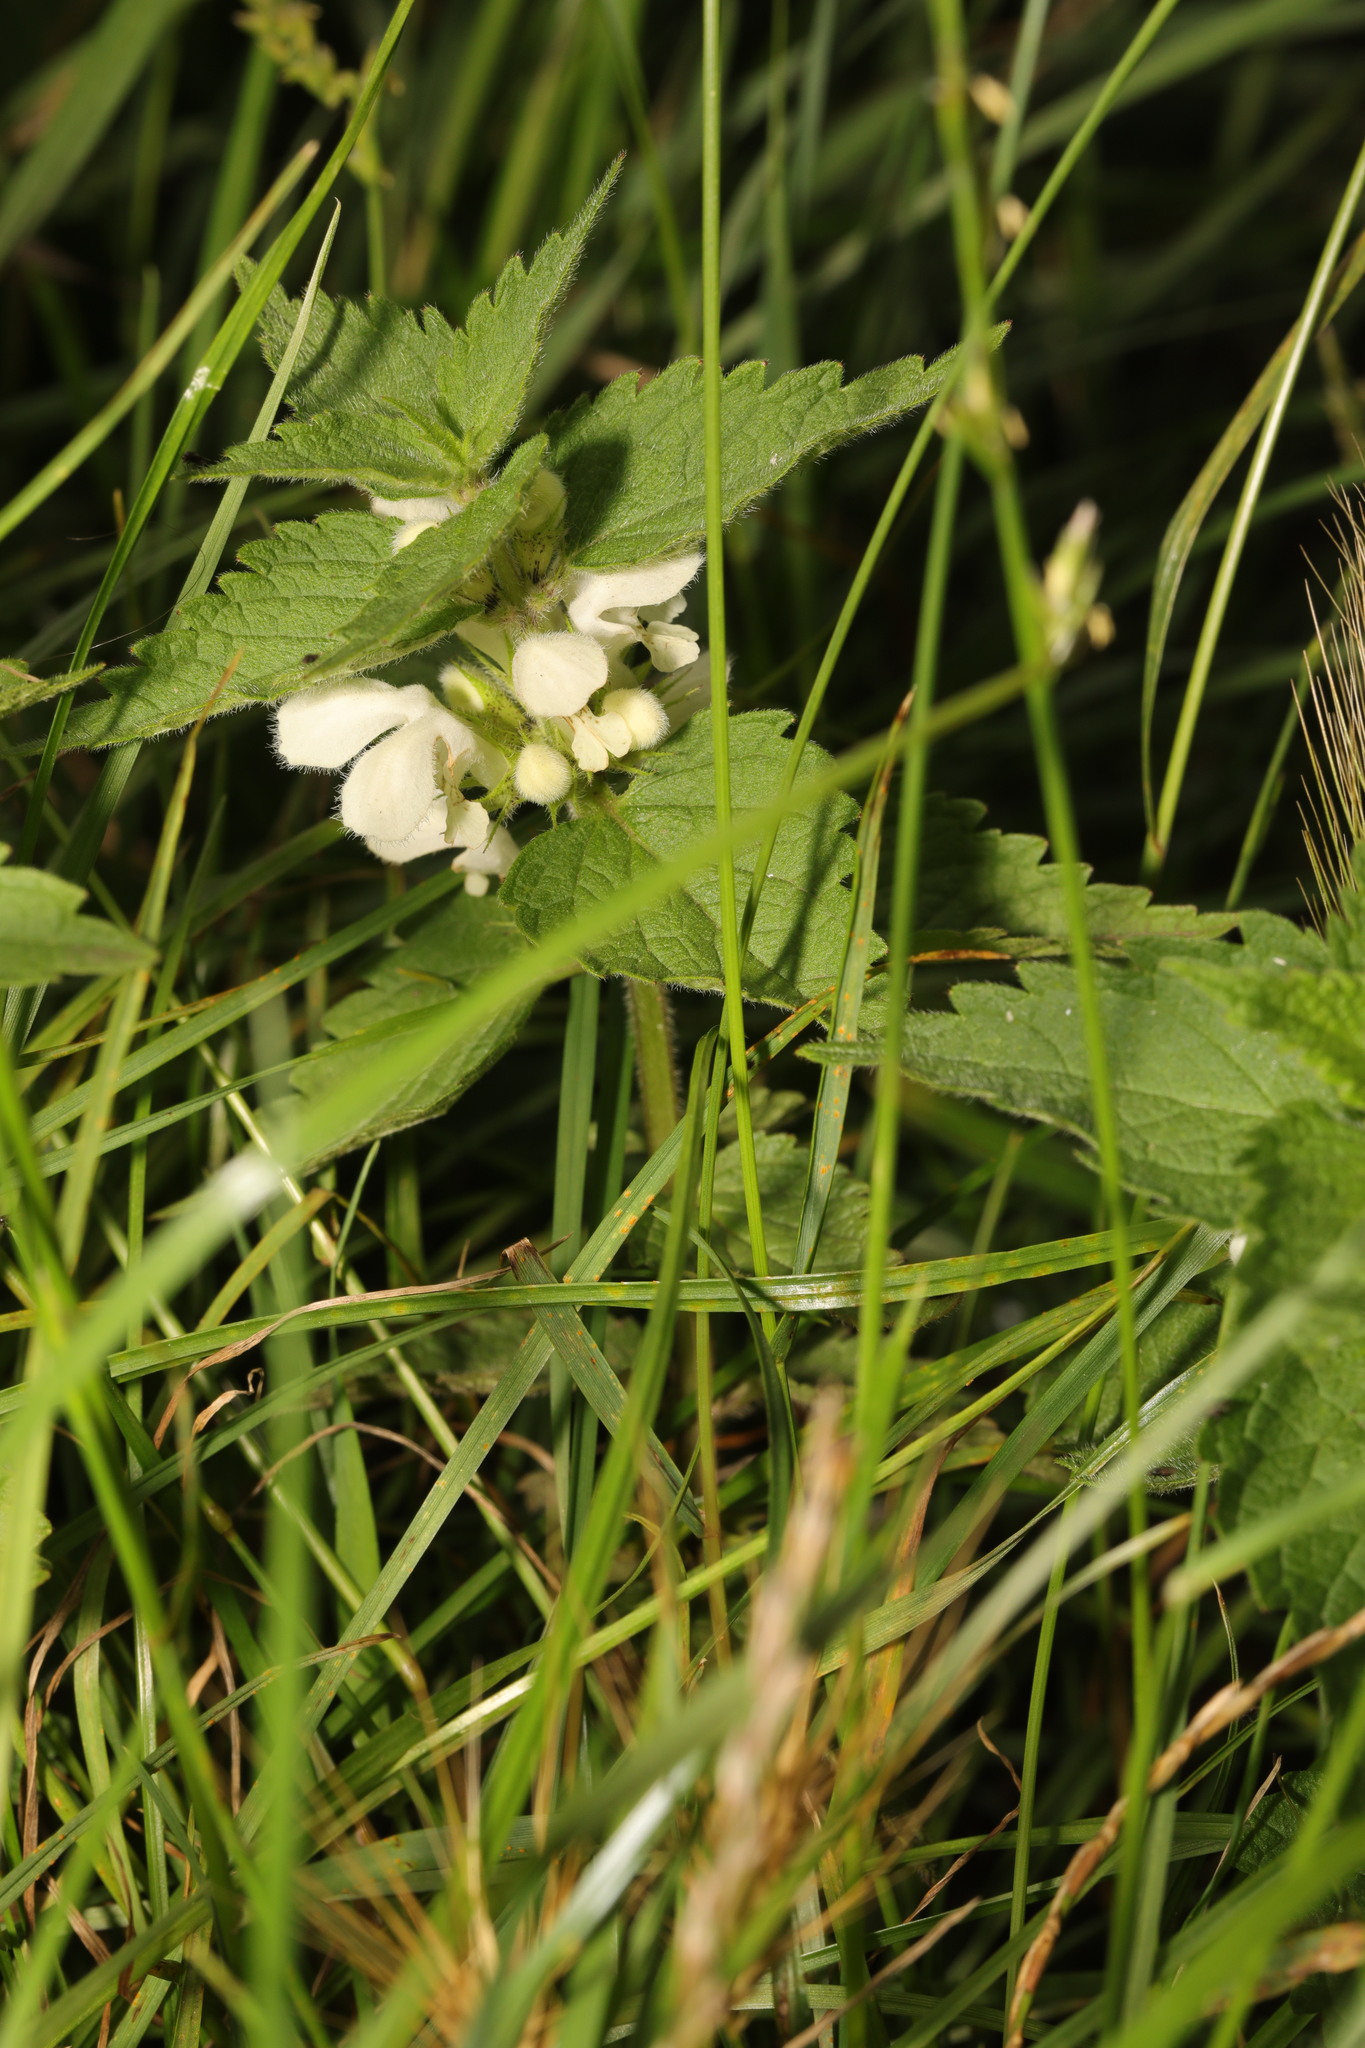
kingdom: Plantae
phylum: Tracheophyta
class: Magnoliopsida
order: Lamiales
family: Lamiaceae
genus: Lamium
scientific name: Lamium album
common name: White dead-nettle
